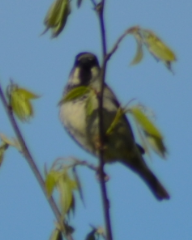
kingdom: Animalia
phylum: Chordata
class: Aves
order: Passeriformes
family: Passeridae
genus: Passer
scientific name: Passer domesticus
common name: House sparrow
